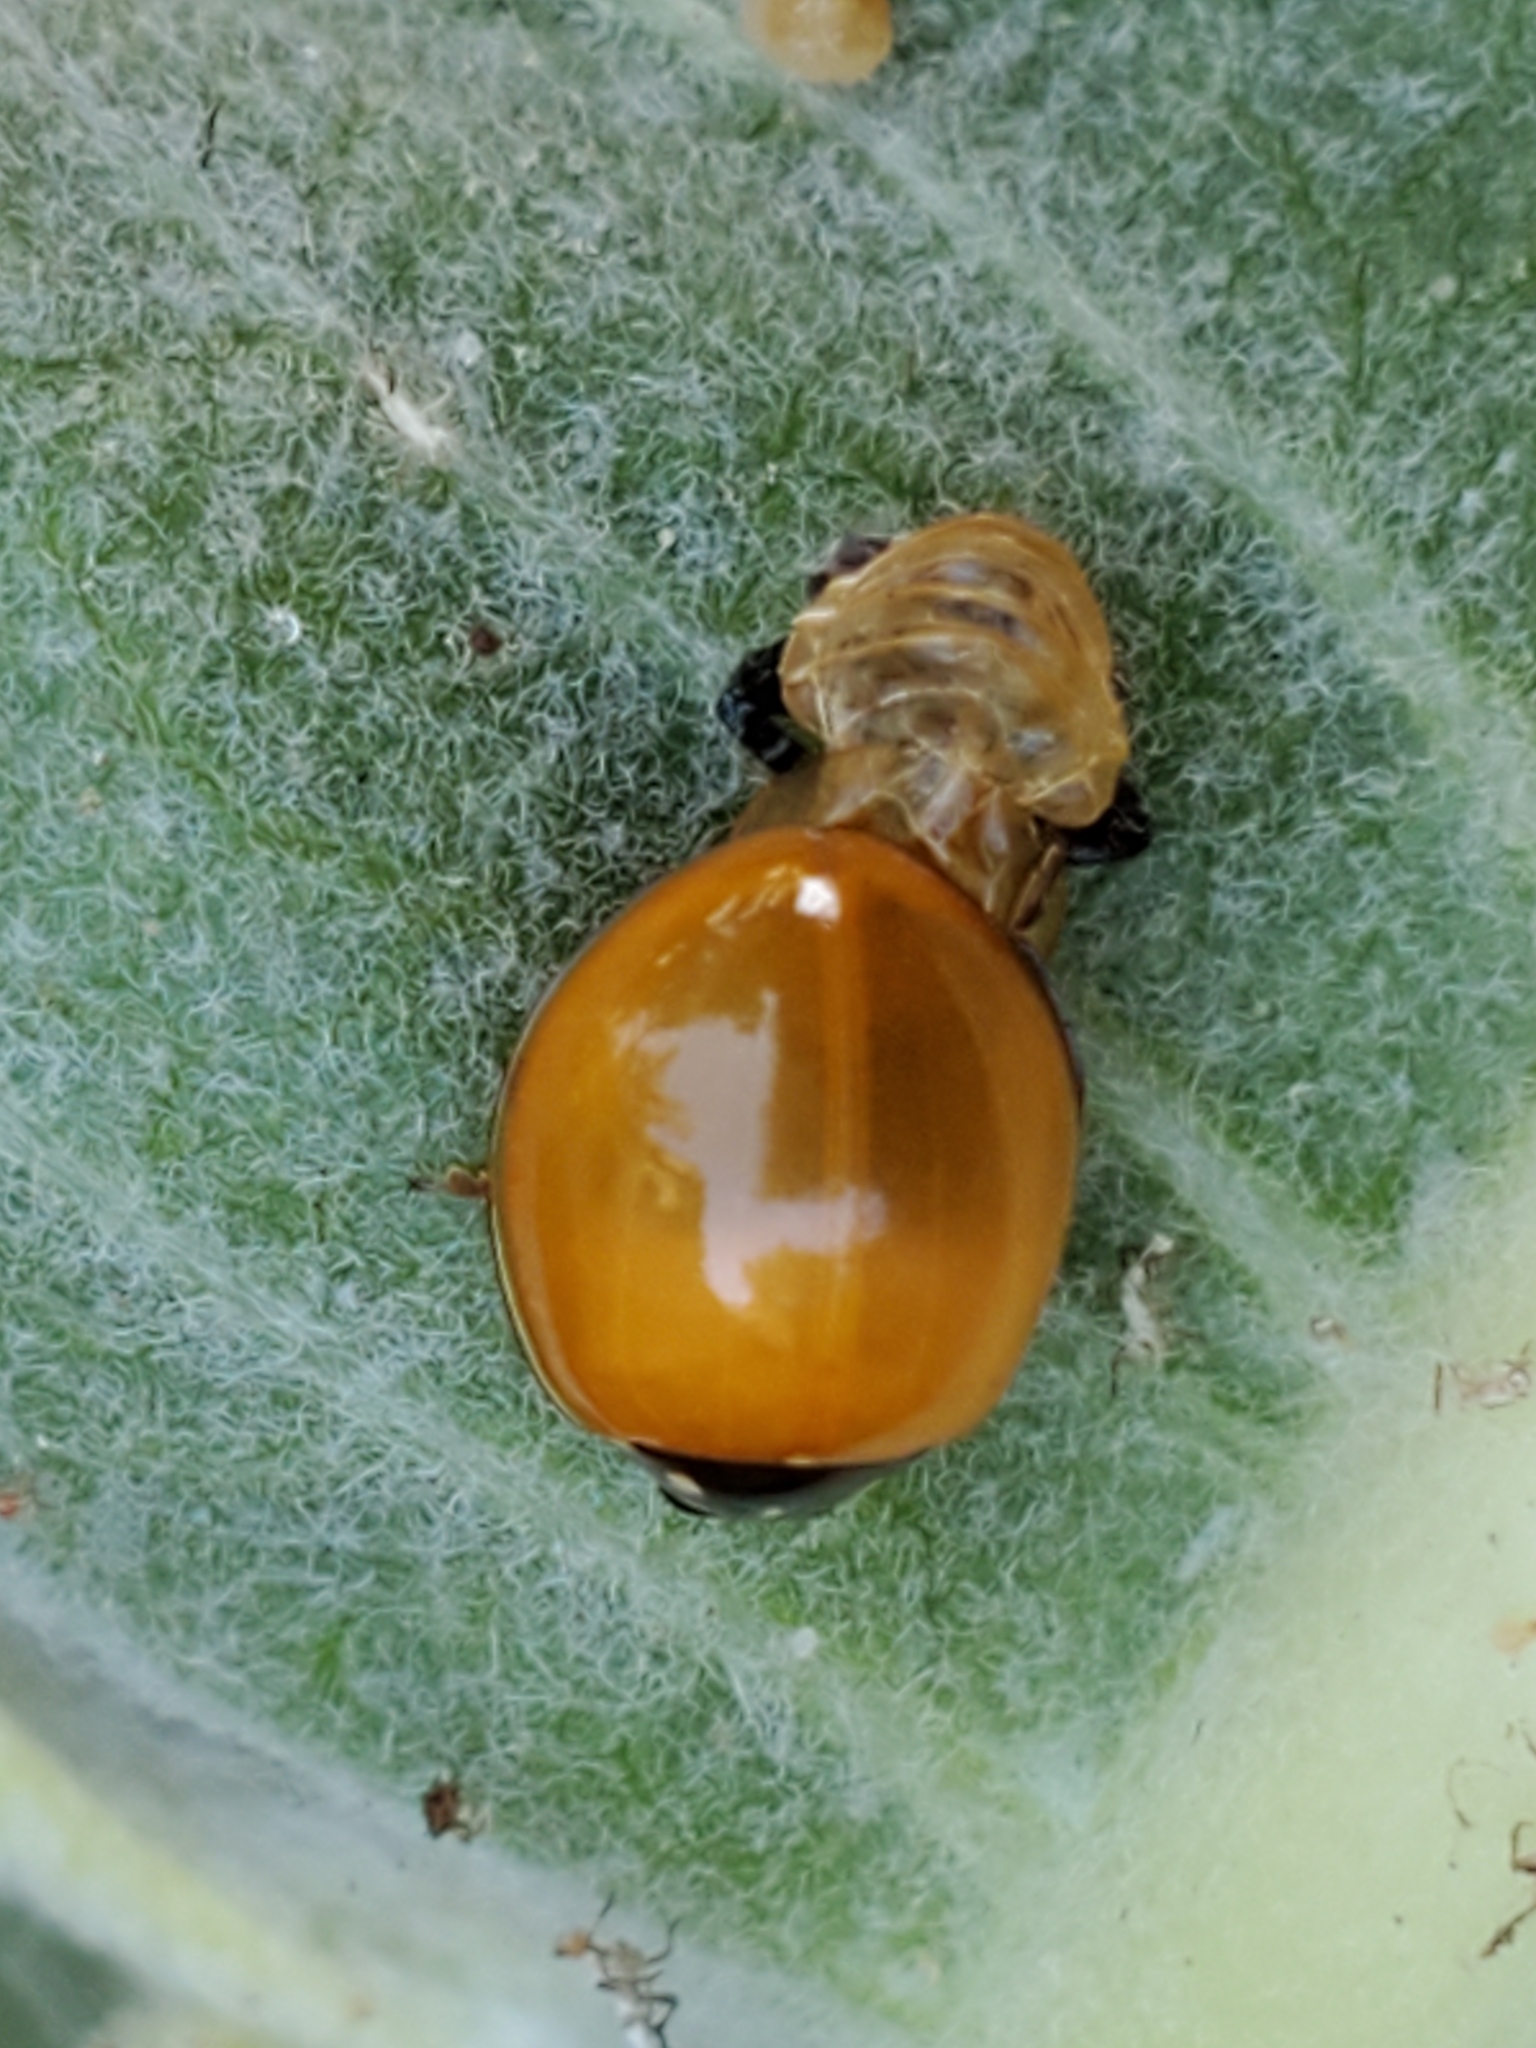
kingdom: Animalia
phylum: Arthropoda
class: Insecta
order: Coleoptera
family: Coccinellidae
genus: Cycloneda
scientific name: Cycloneda sanguinea
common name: Ladybird beetle
